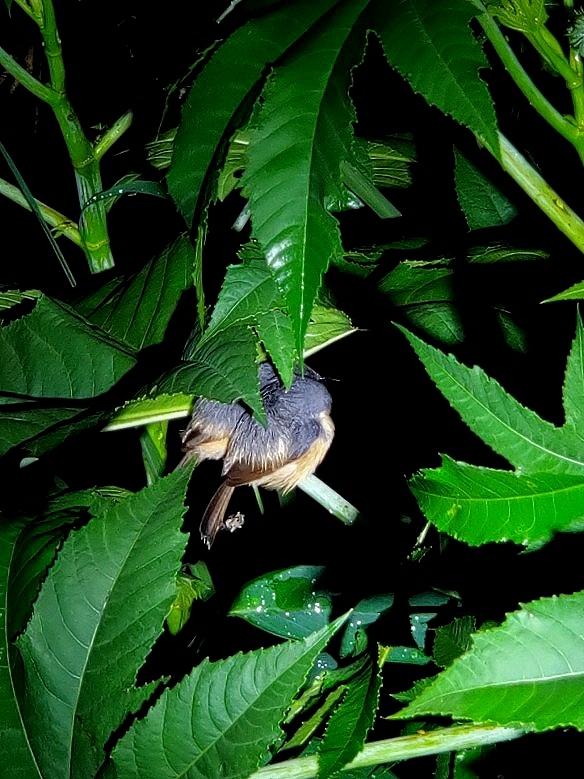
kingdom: Animalia
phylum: Chordata
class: Aves
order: Passeriformes
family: Cisticolidae
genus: Prinia
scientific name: Prinia socialis
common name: Ashy prinia
